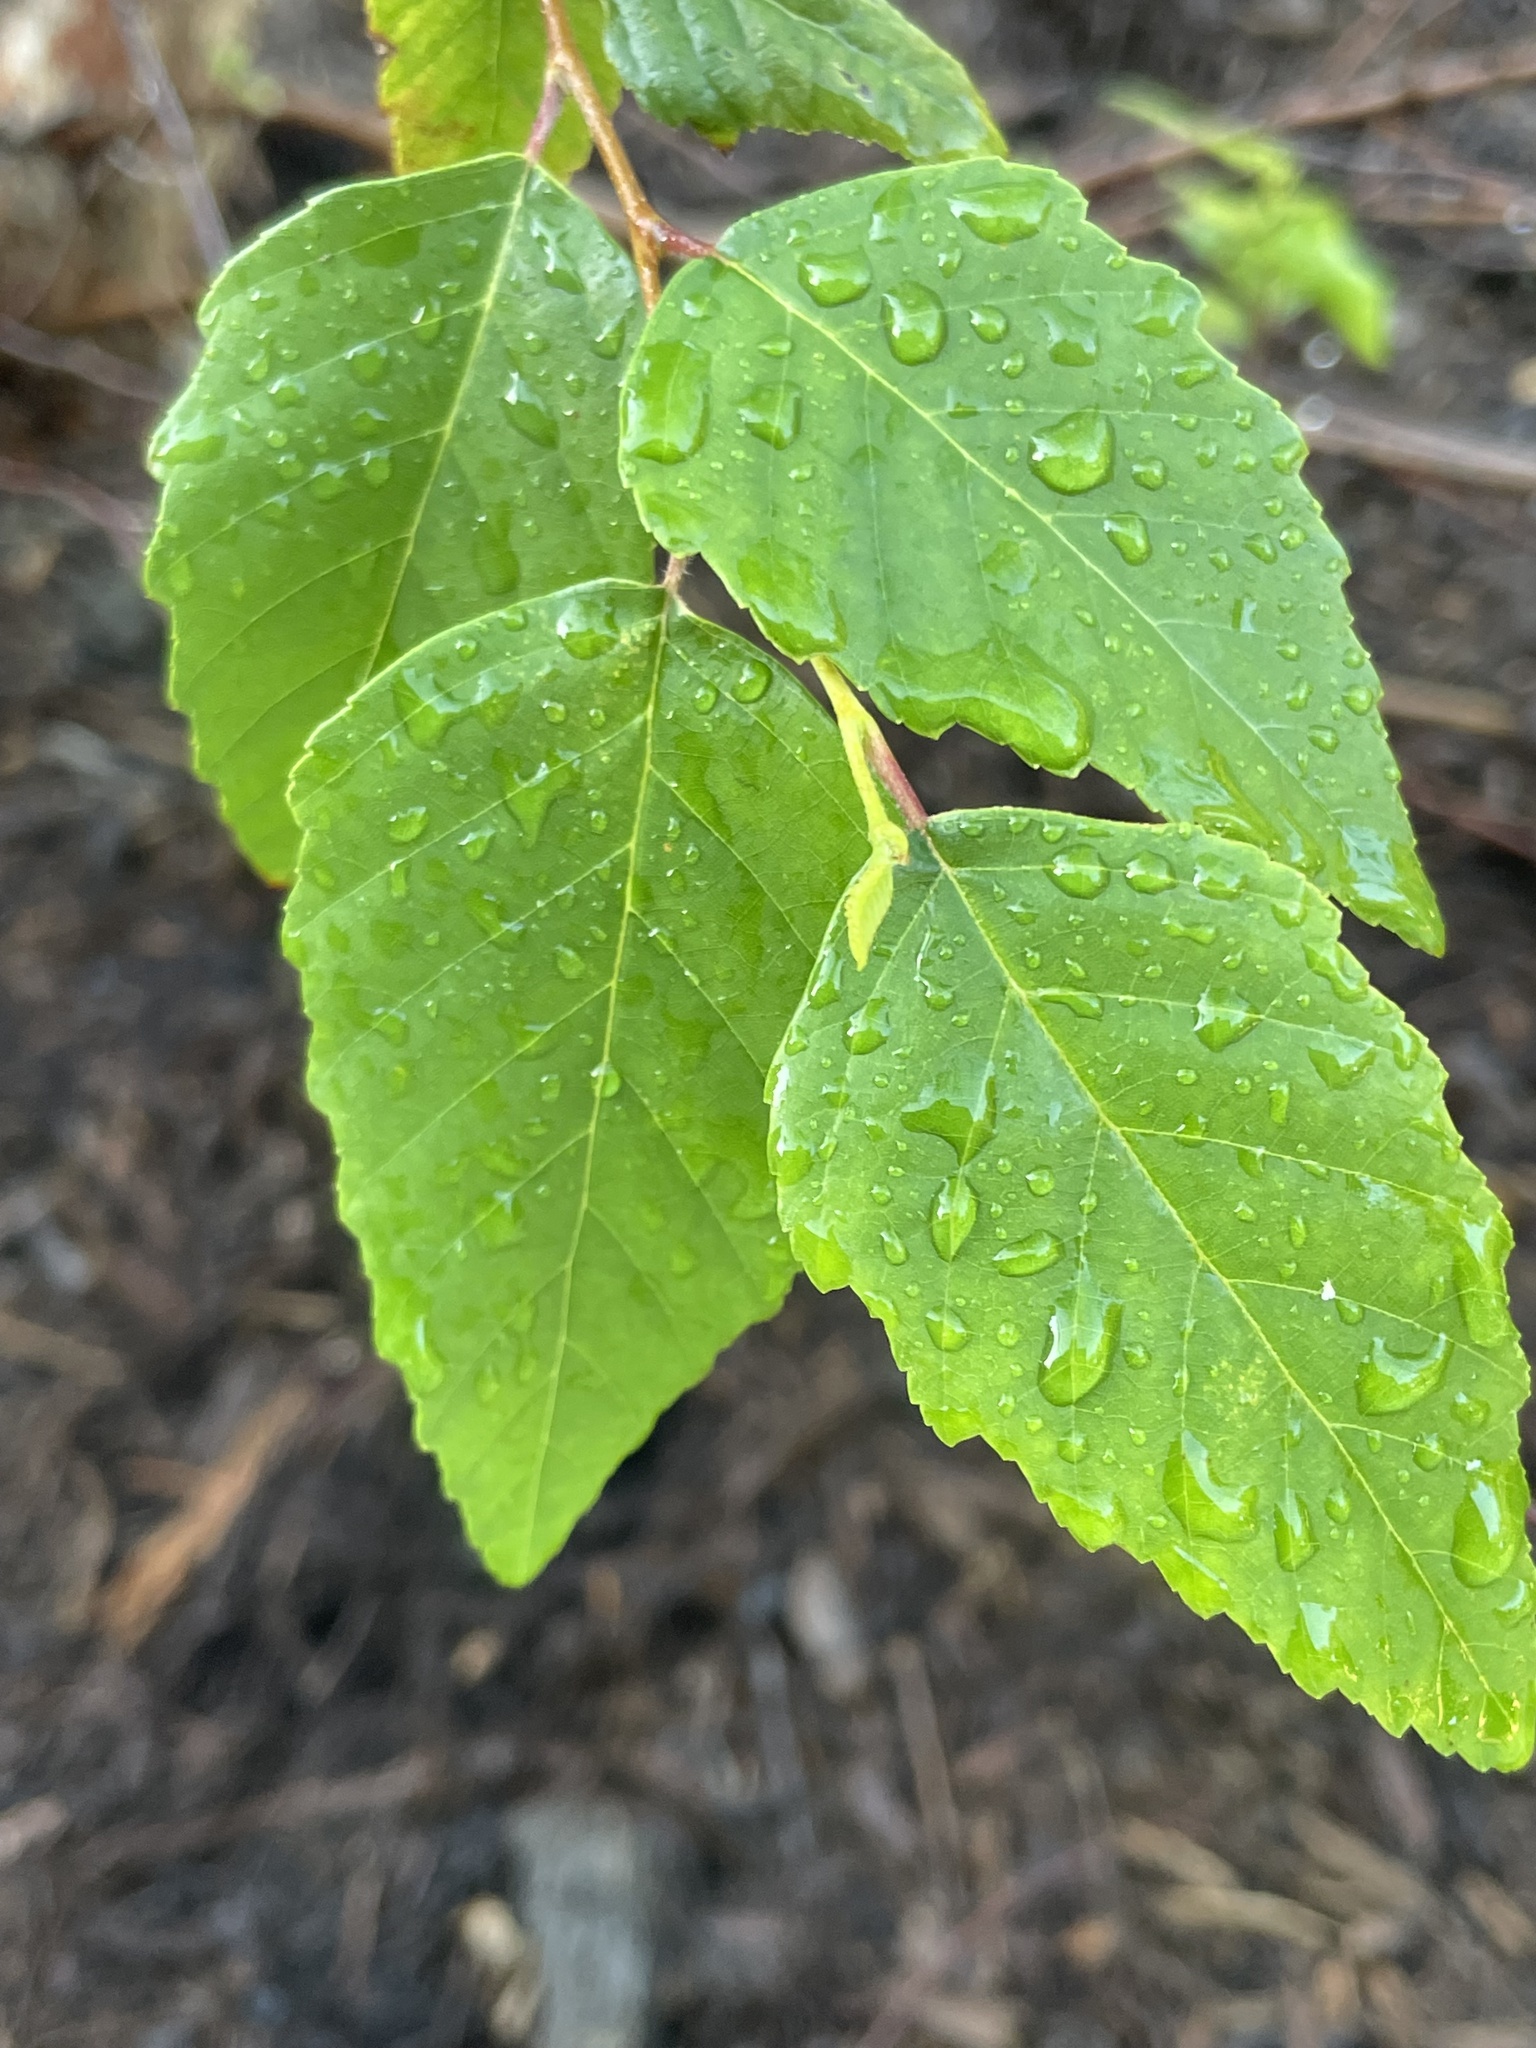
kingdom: Plantae
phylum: Tracheophyta
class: Magnoliopsida
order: Fagales
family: Betulaceae
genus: Betula
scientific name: Betula nigra
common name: Black birch
